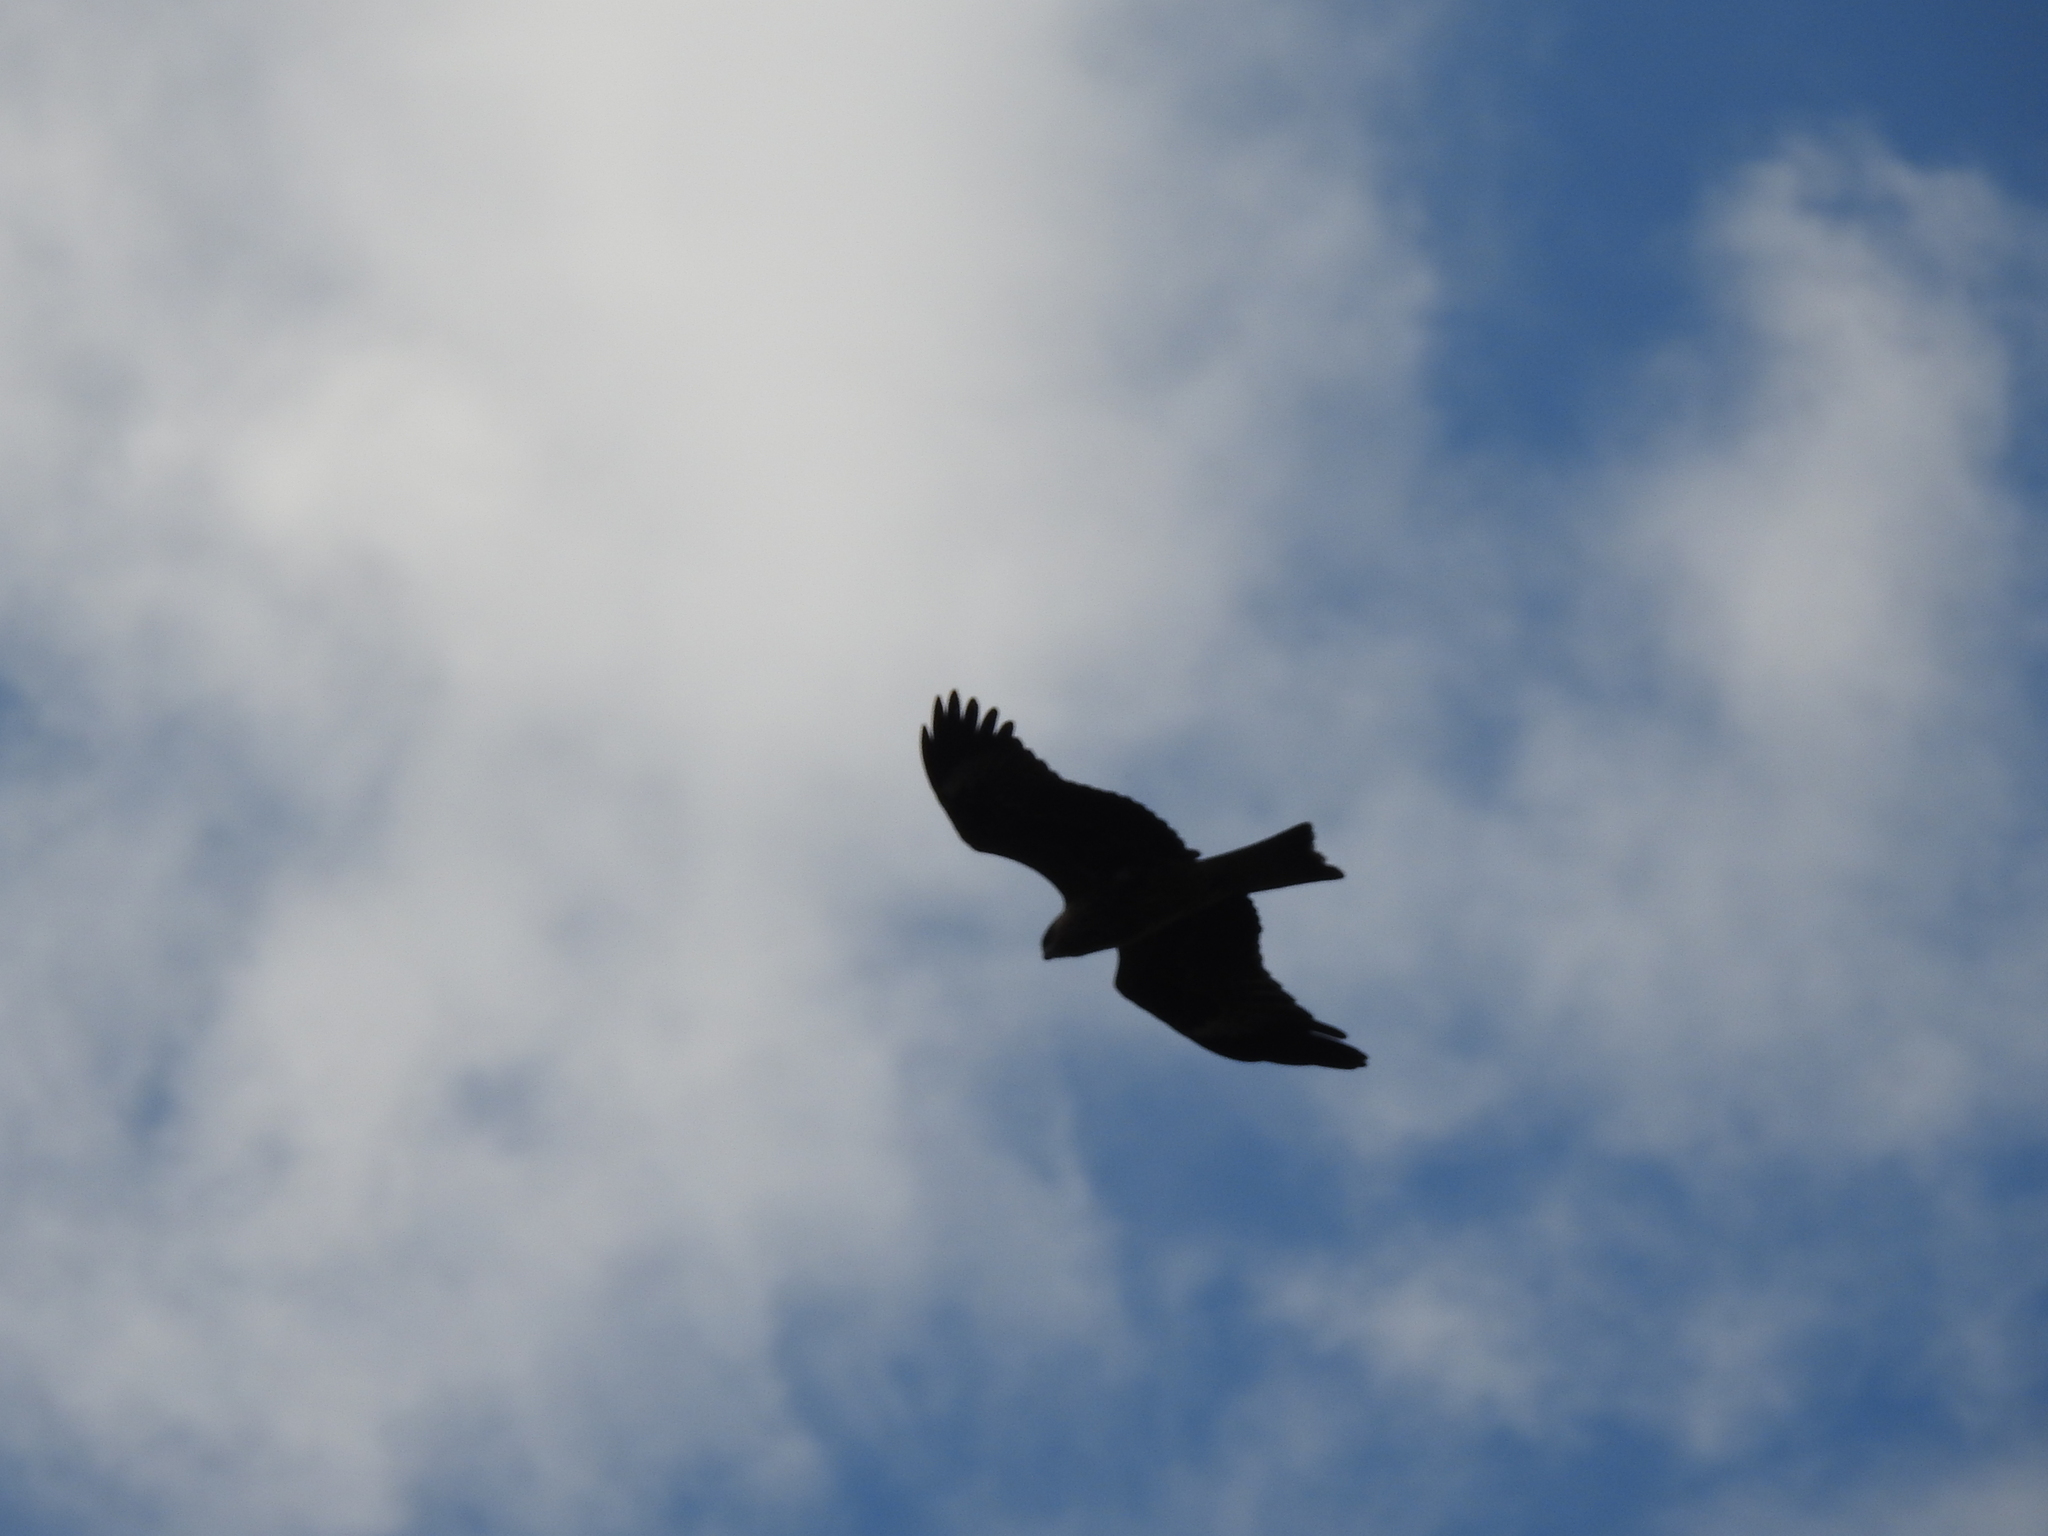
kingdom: Animalia
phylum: Chordata
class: Aves
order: Accipitriformes
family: Accipitridae
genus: Milvus
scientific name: Milvus migrans
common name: Black kite
